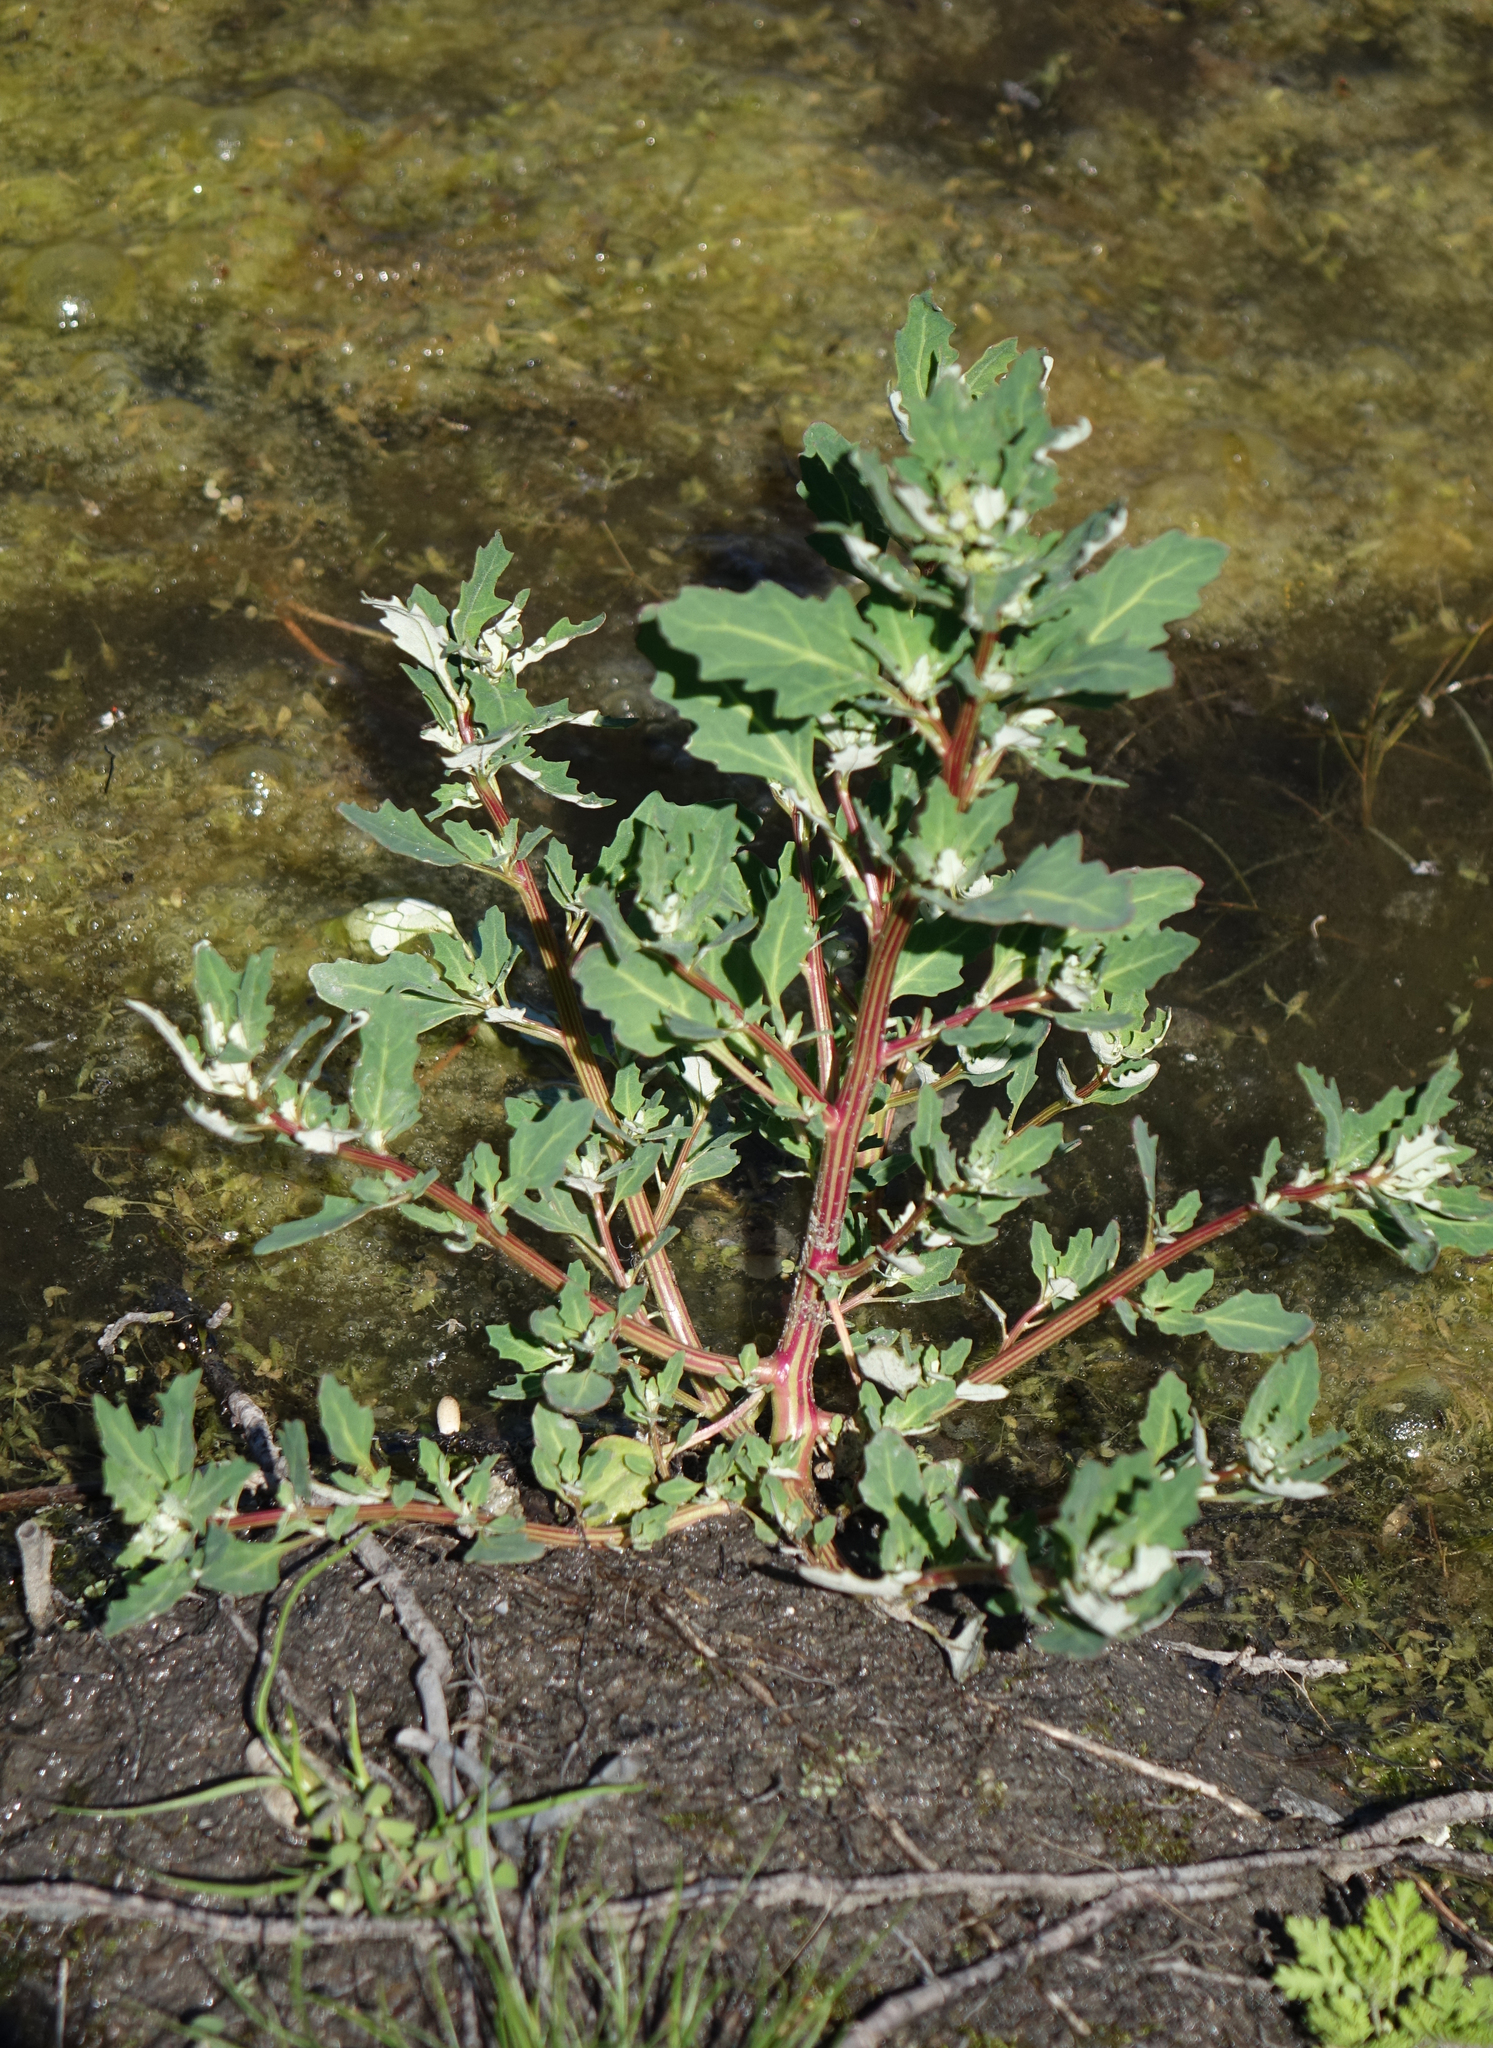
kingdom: Plantae
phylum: Tracheophyta
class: Magnoliopsida
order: Caryophyllales
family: Amaranthaceae
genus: Oxybasis
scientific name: Oxybasis glauca
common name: Glaucous goosefoot
